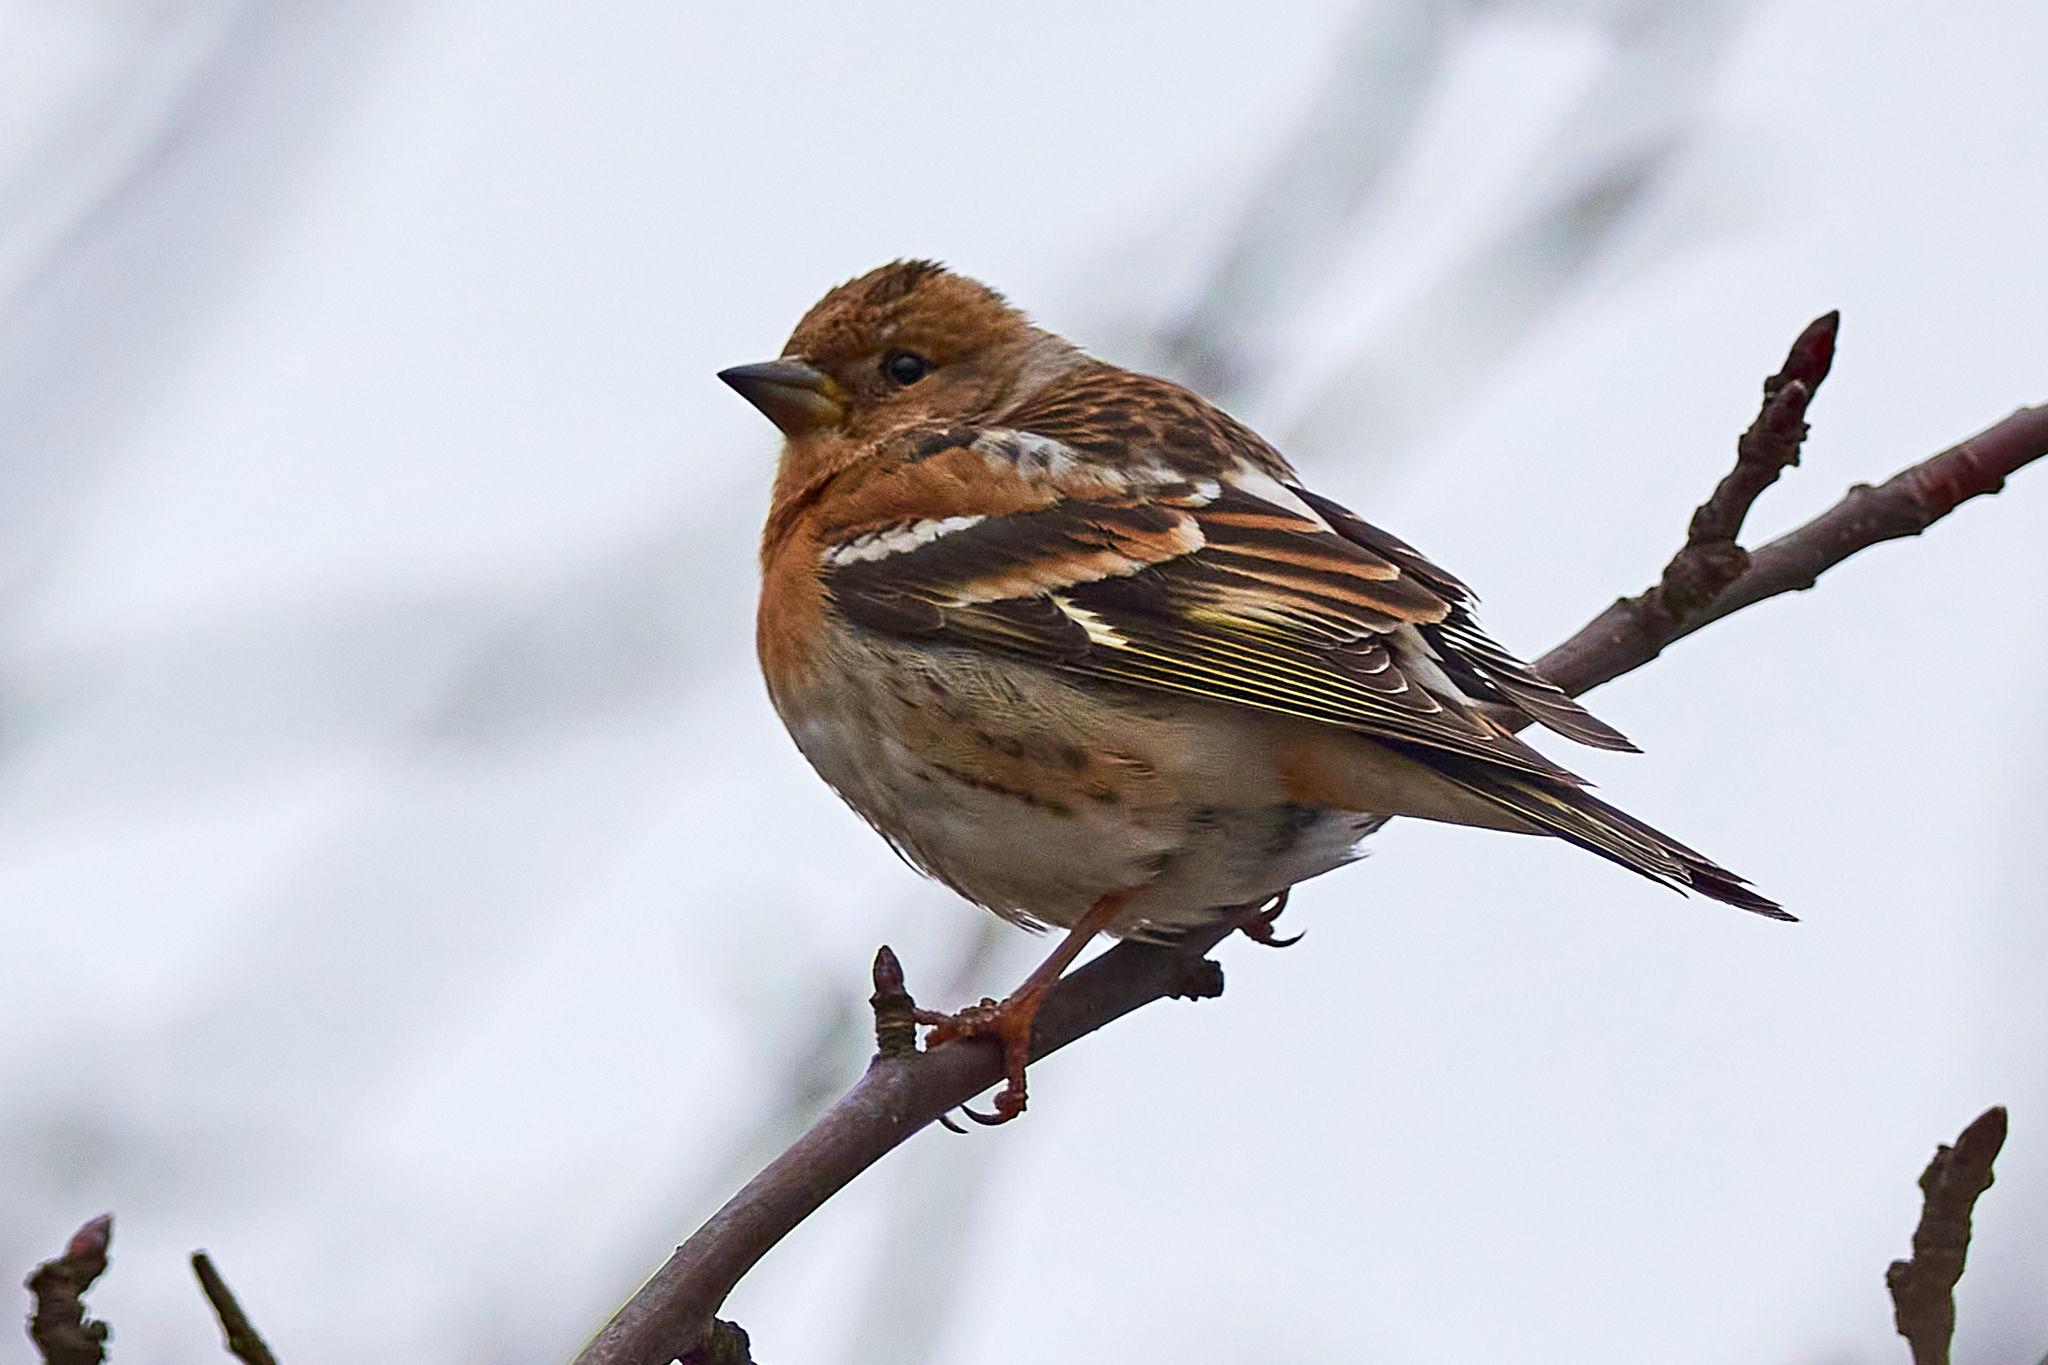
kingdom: Animalia
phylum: Chordata
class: Aves
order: Passeriformes
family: Fringillidae
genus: Fringilla
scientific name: Fringilla montifringilla
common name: Brambling
